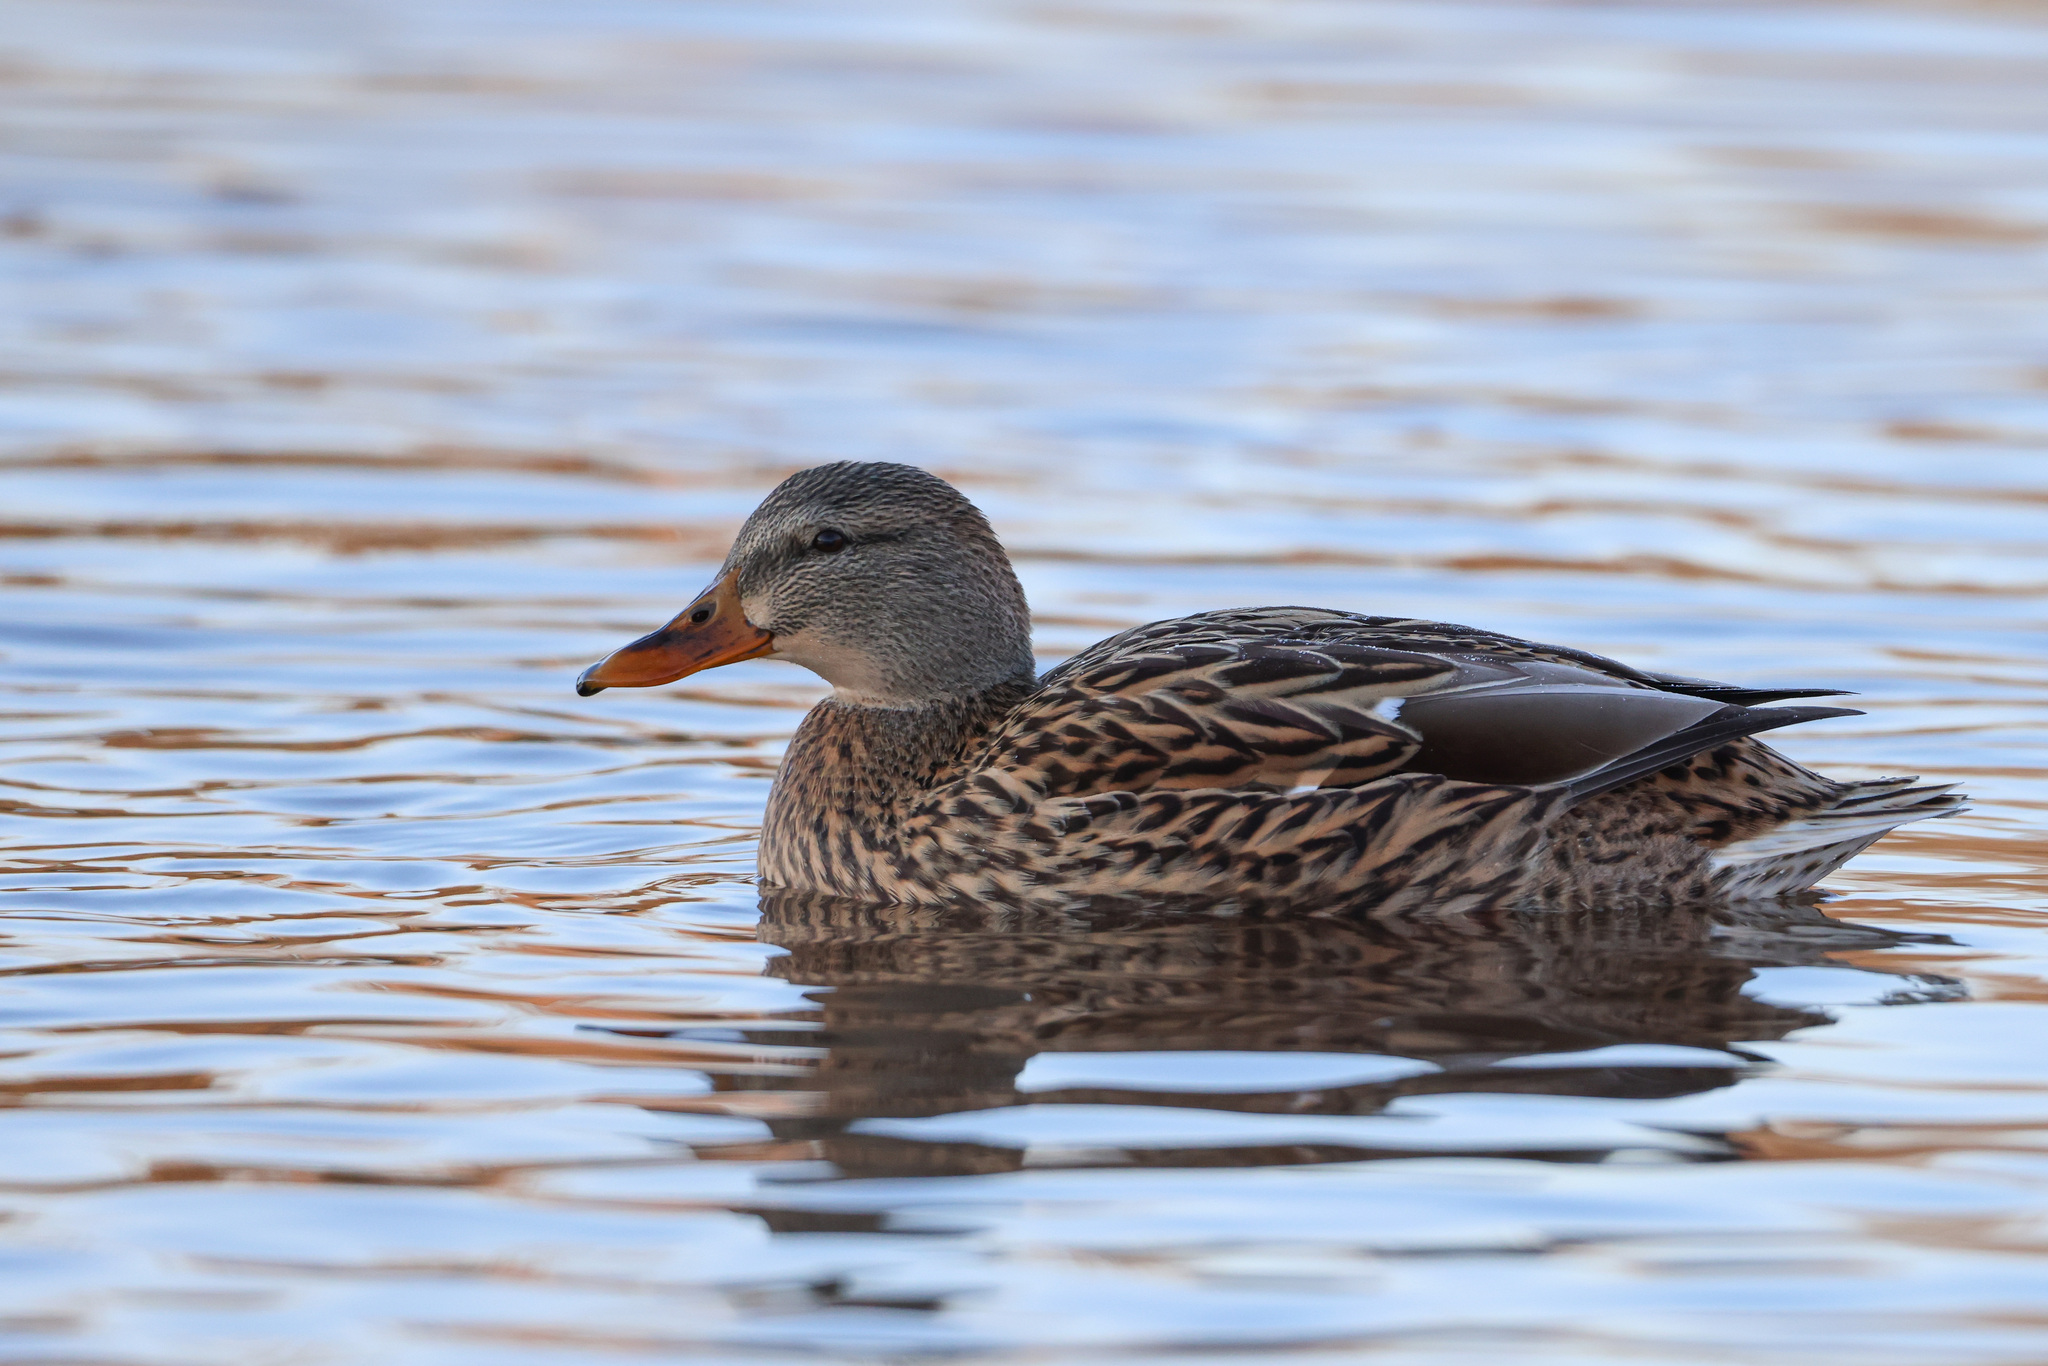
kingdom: Animalia
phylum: Chordata
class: Aves
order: Anseriformes
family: Anatidae
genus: Anas
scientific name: Anas platyrhynchos
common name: Mallard
